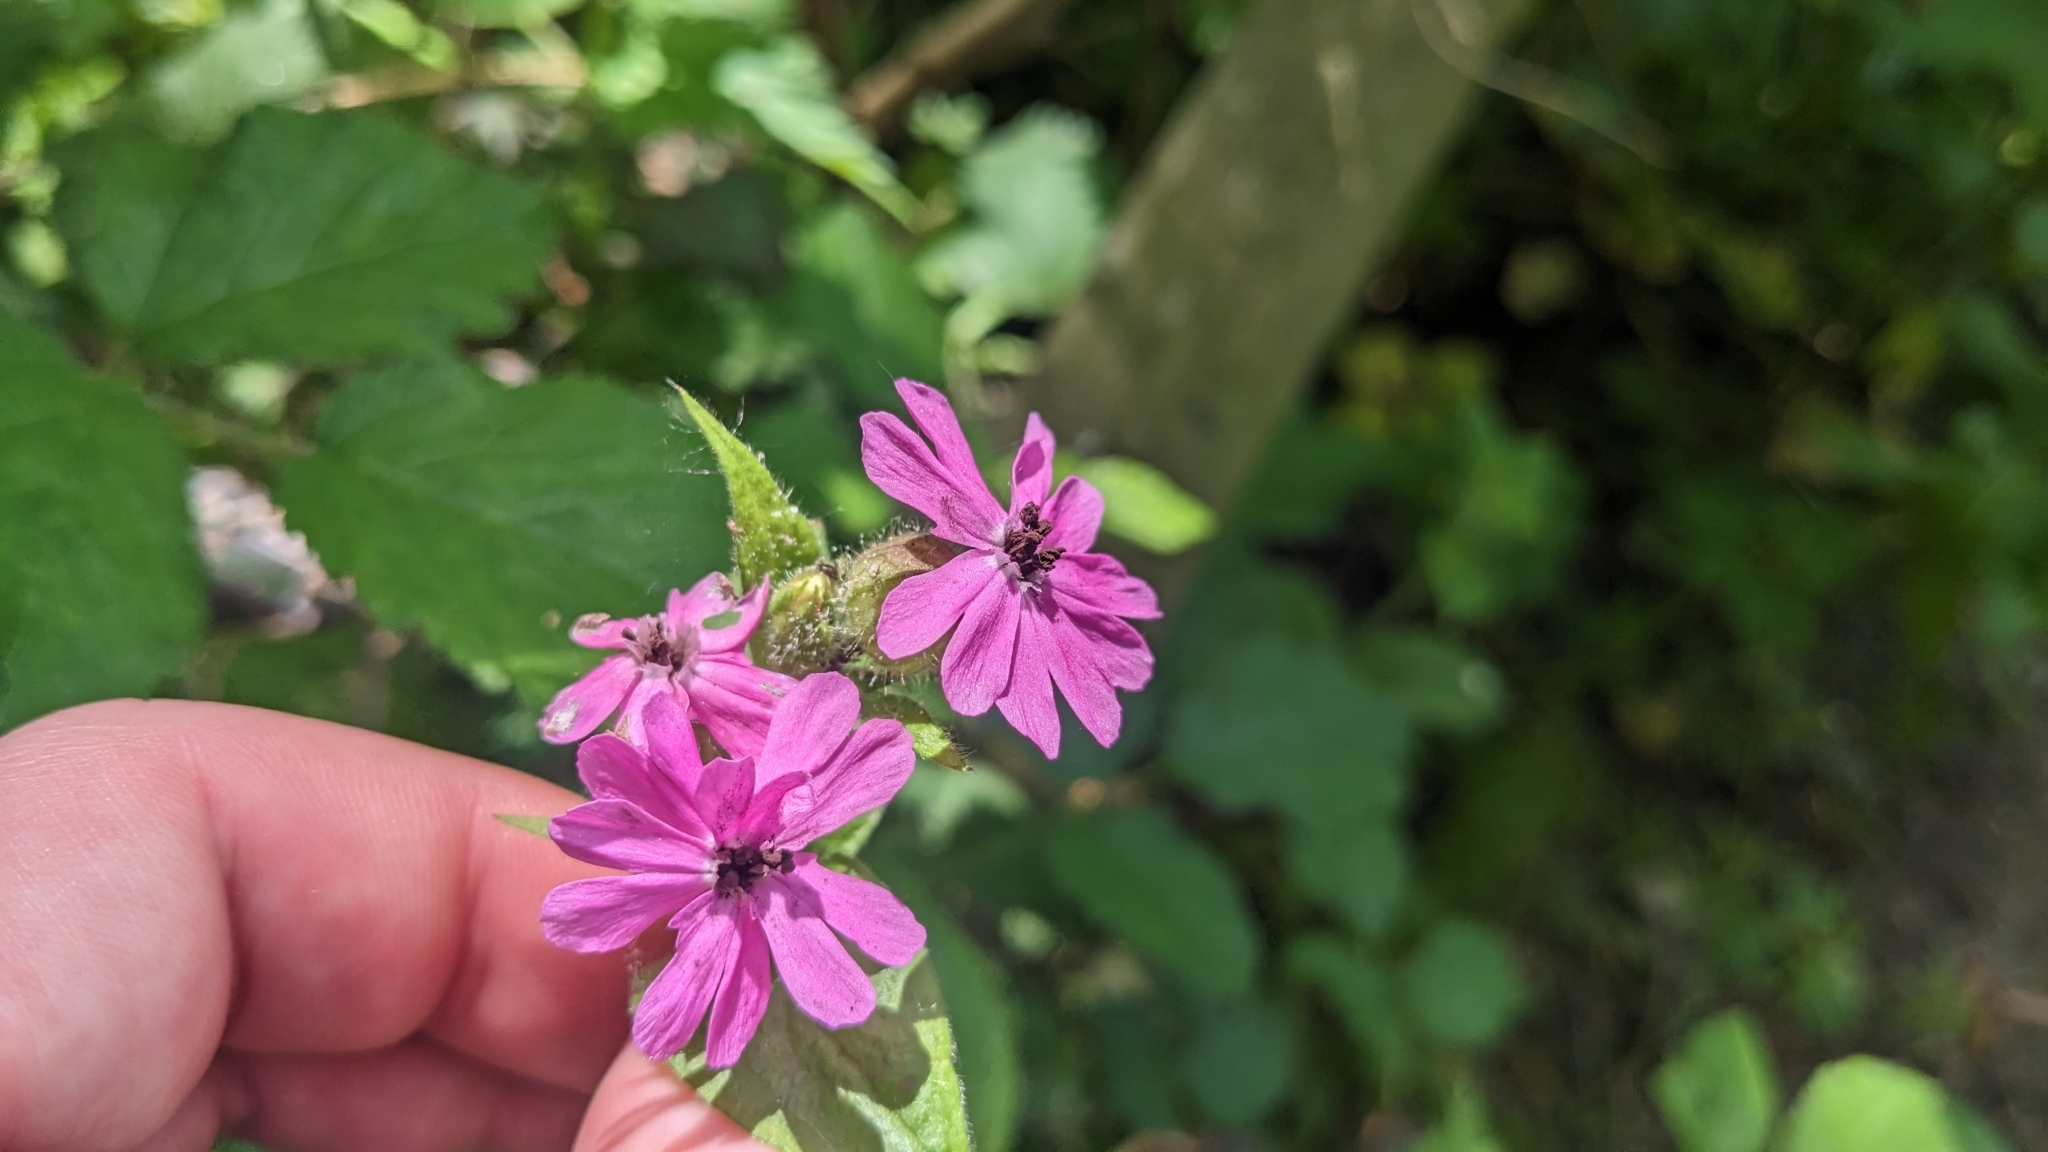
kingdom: Fungi
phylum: Basidiomycota
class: Microbotryomycetes
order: Microbotryales
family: Microbotryaceae
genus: Microbotryum
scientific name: Microbotryum silenes-dioicae
